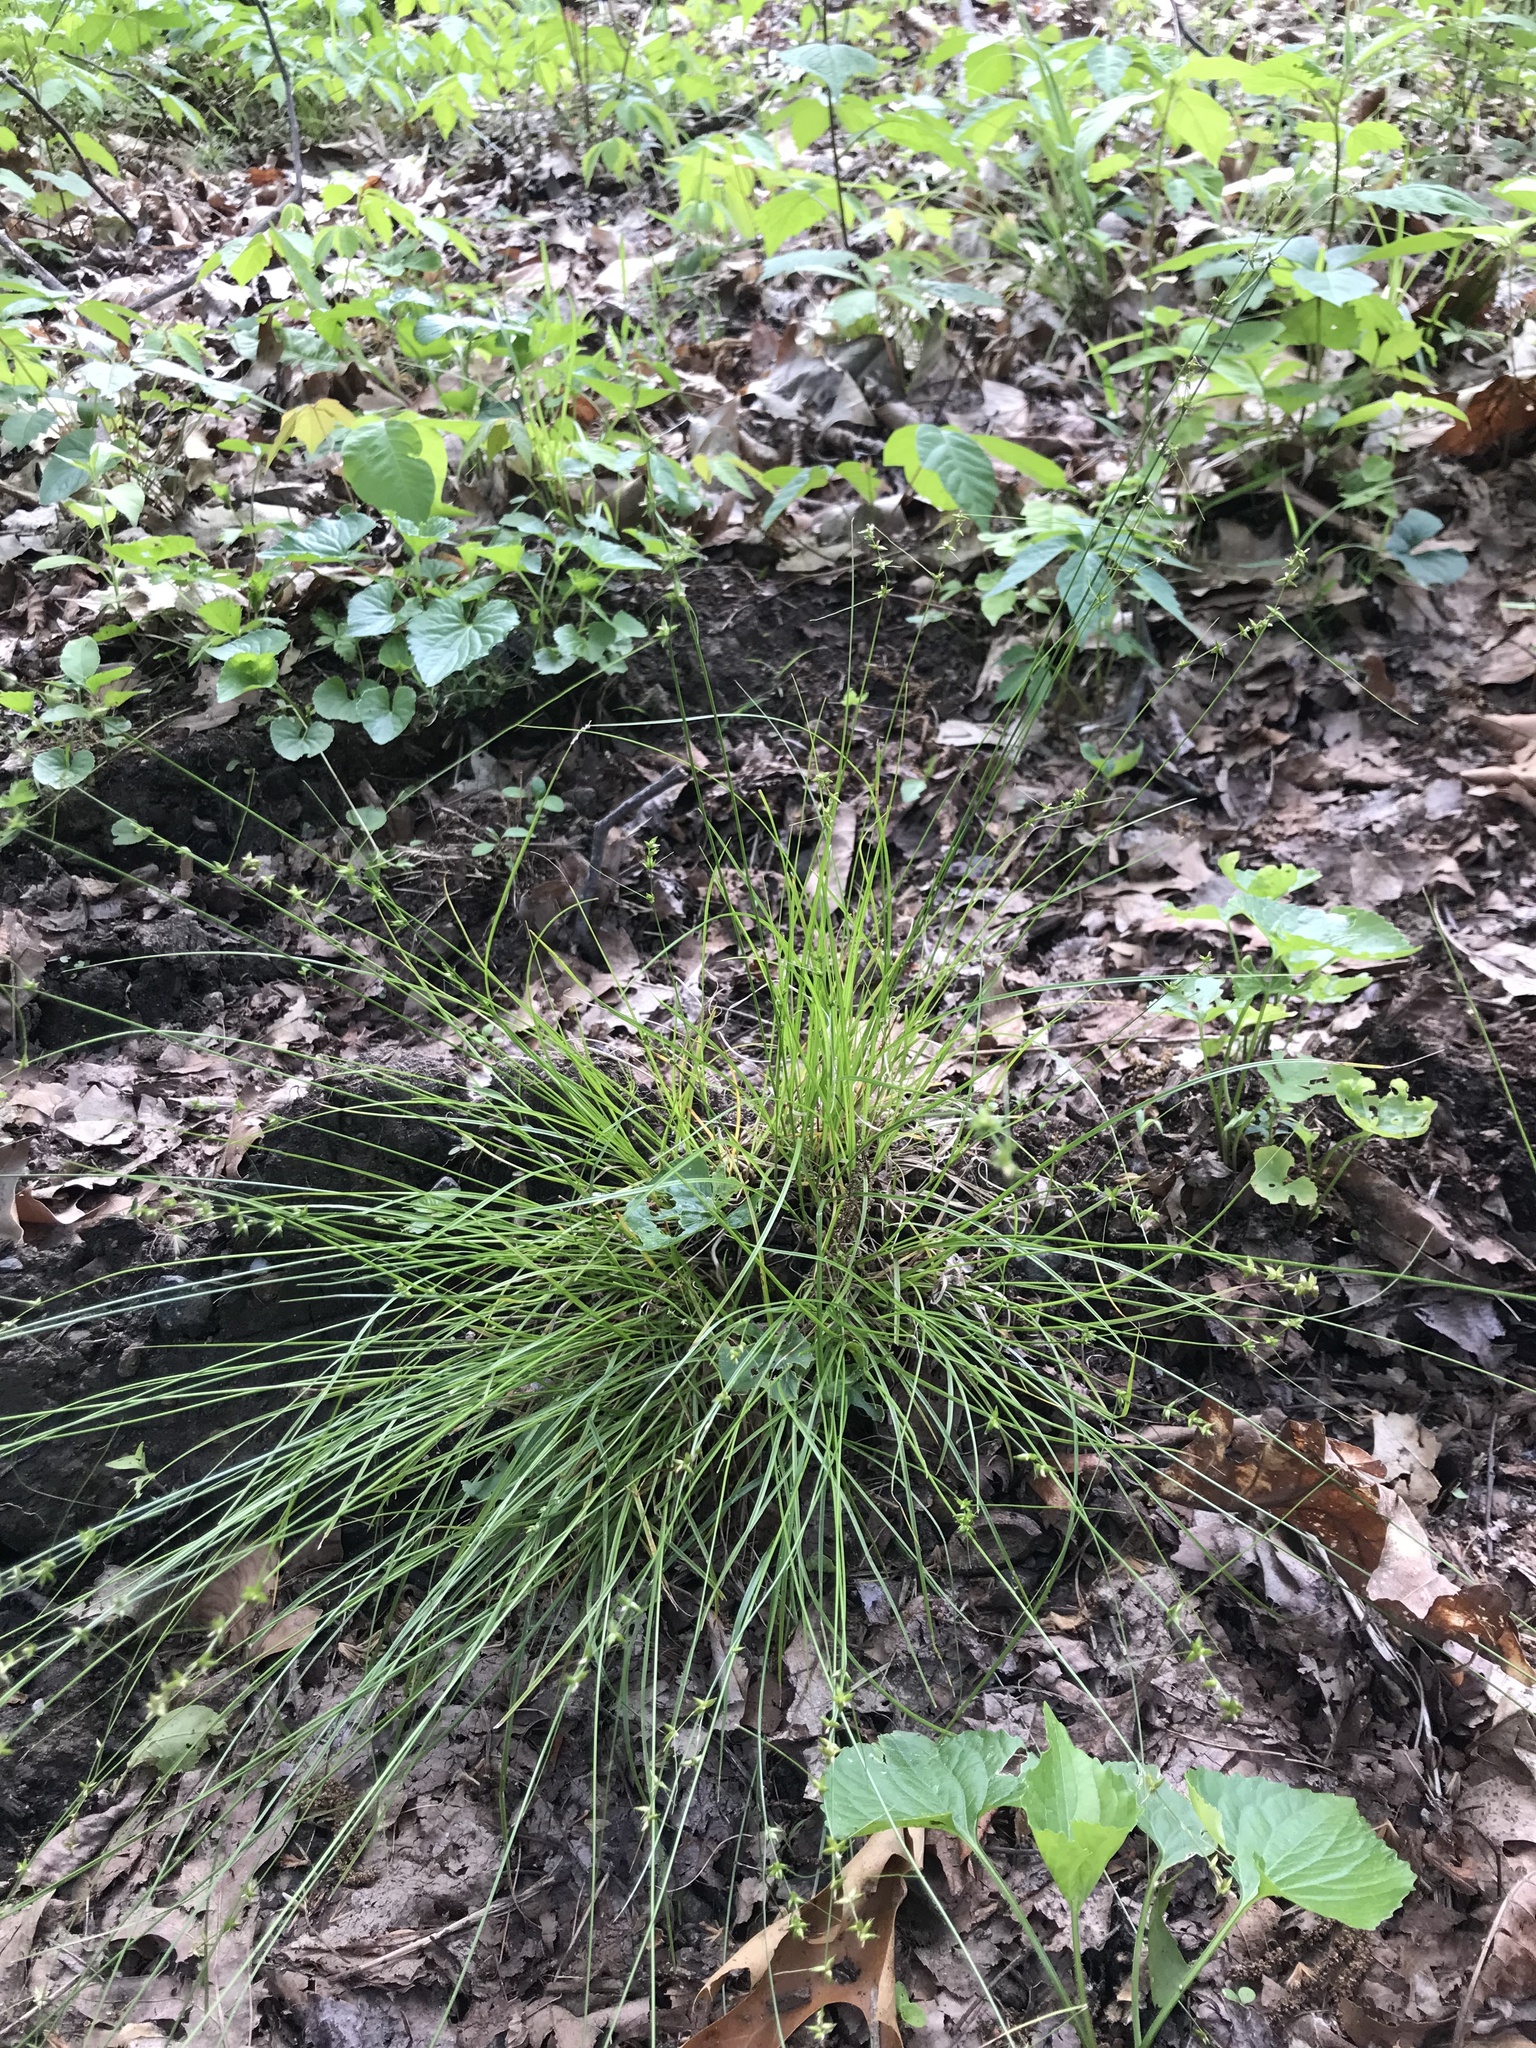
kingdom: Plantae
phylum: Tracheophyta
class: Liliopsida
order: Poales
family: Cyperaceae
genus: Carex
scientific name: Carex radiata
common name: Eastern star sedge
